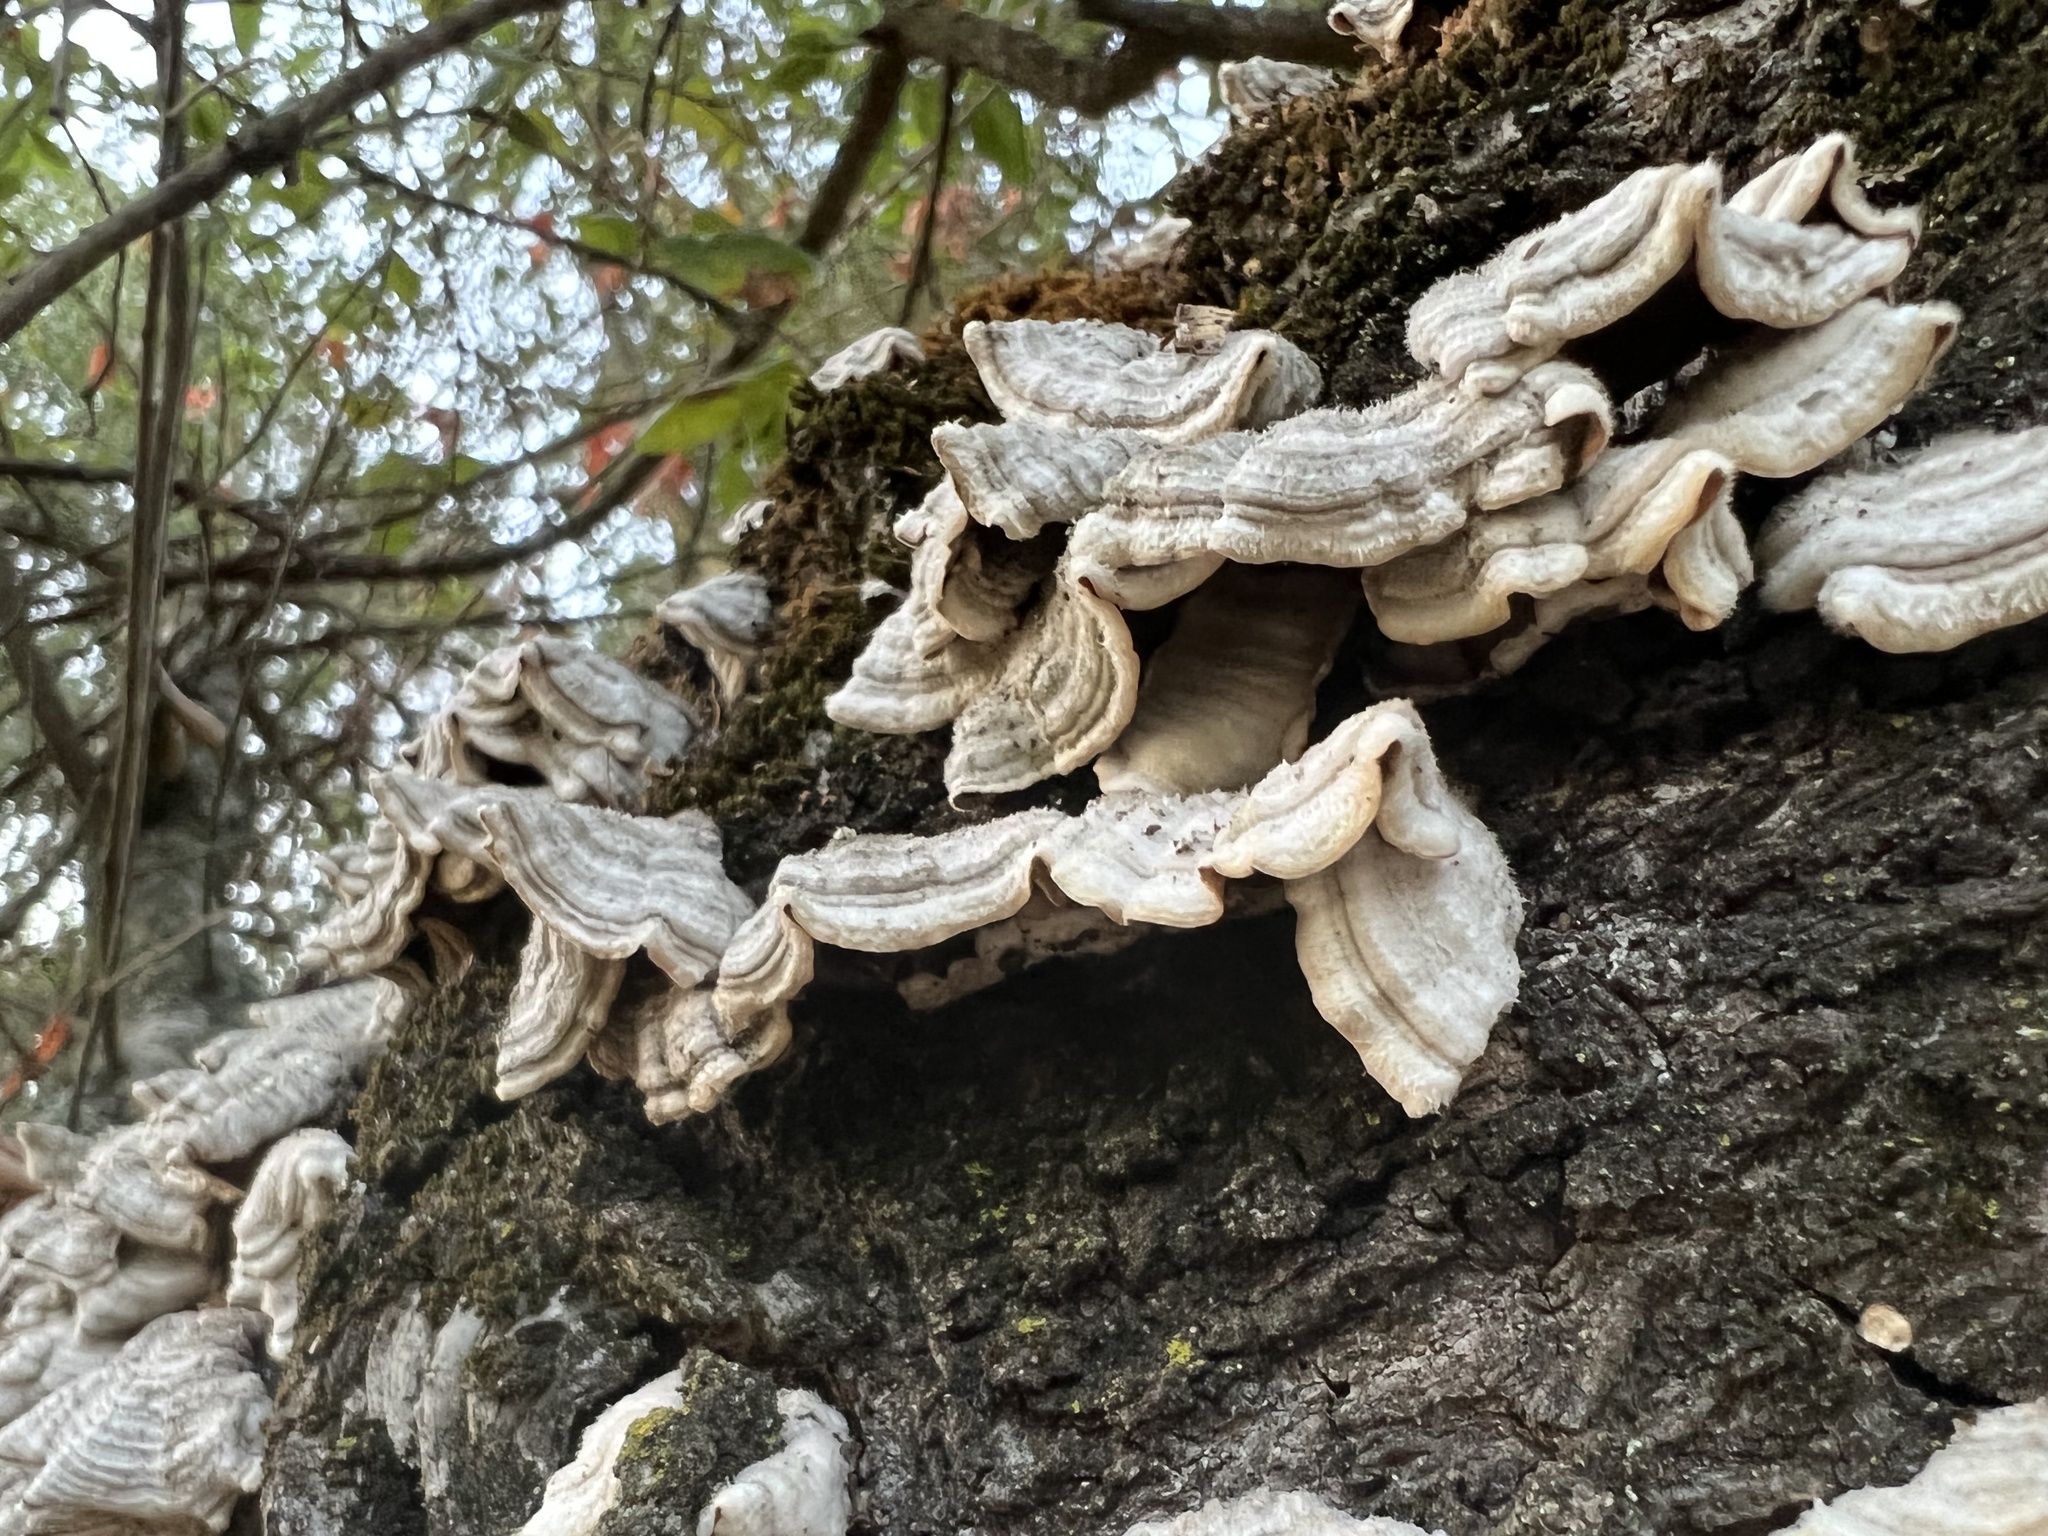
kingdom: Fungi
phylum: Basidiomycota
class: Agaricomycetes
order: Russulales
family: Stereaceae
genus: Stereum
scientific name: Stereum hirsutum
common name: Hairy curtain crust
